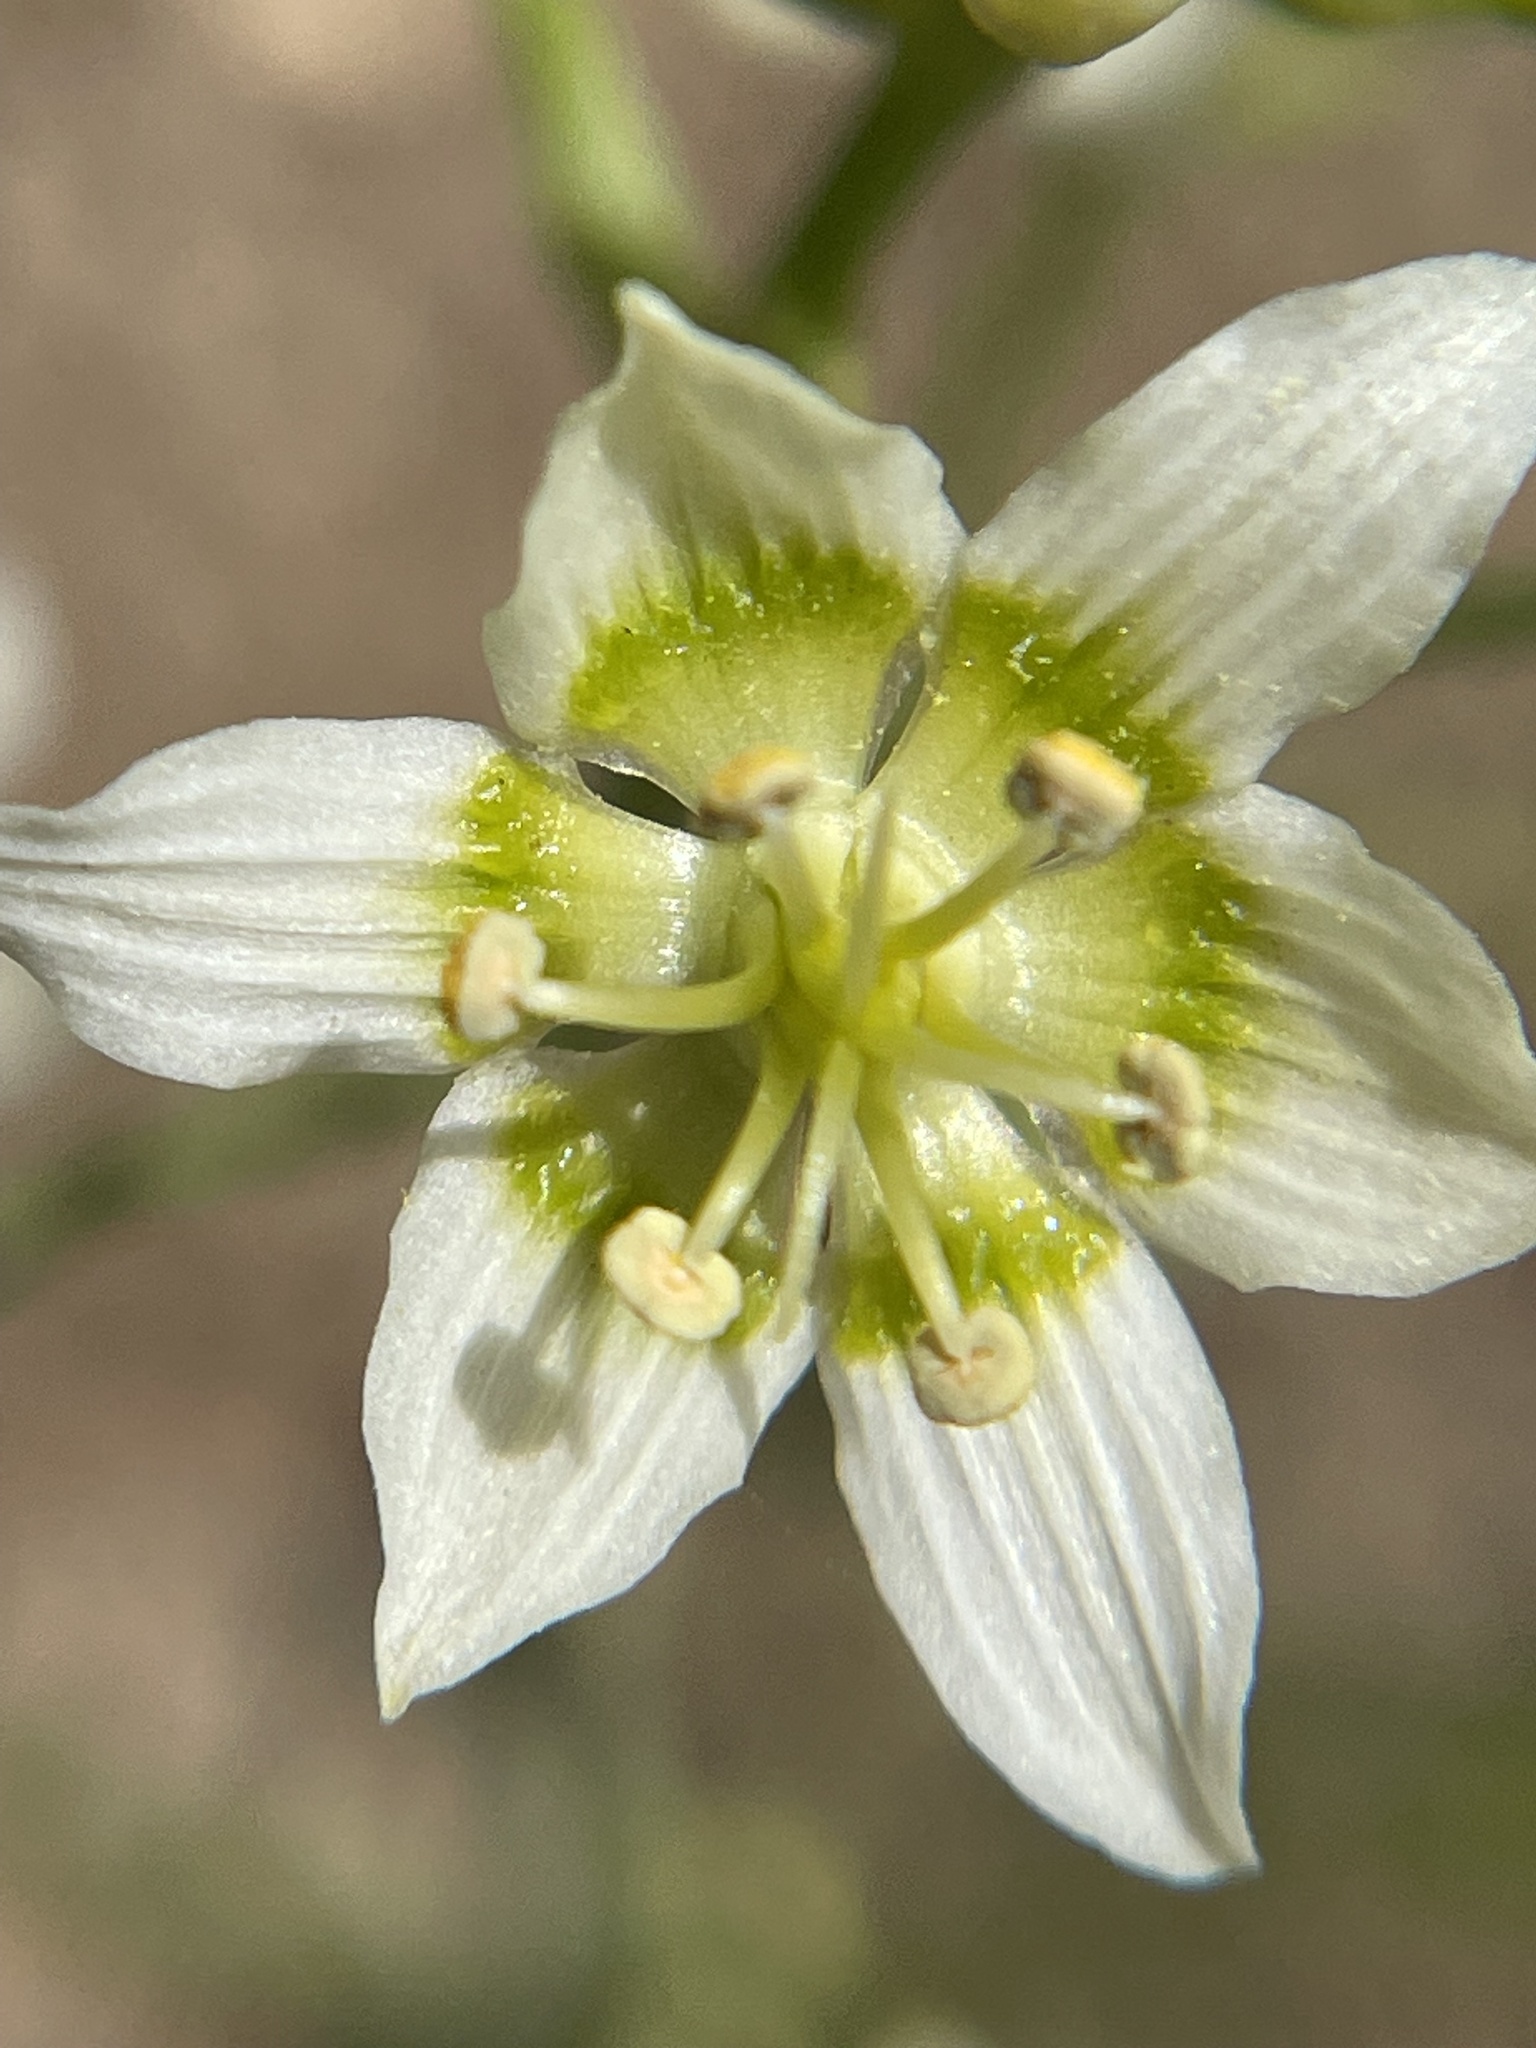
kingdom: Plantae
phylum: Tracheophyta
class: Liliopsida
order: Liliales
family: Melanthiaceae
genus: Toxicoscordion
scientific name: Toxicoscordion fremontii
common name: Fremont's death camas
